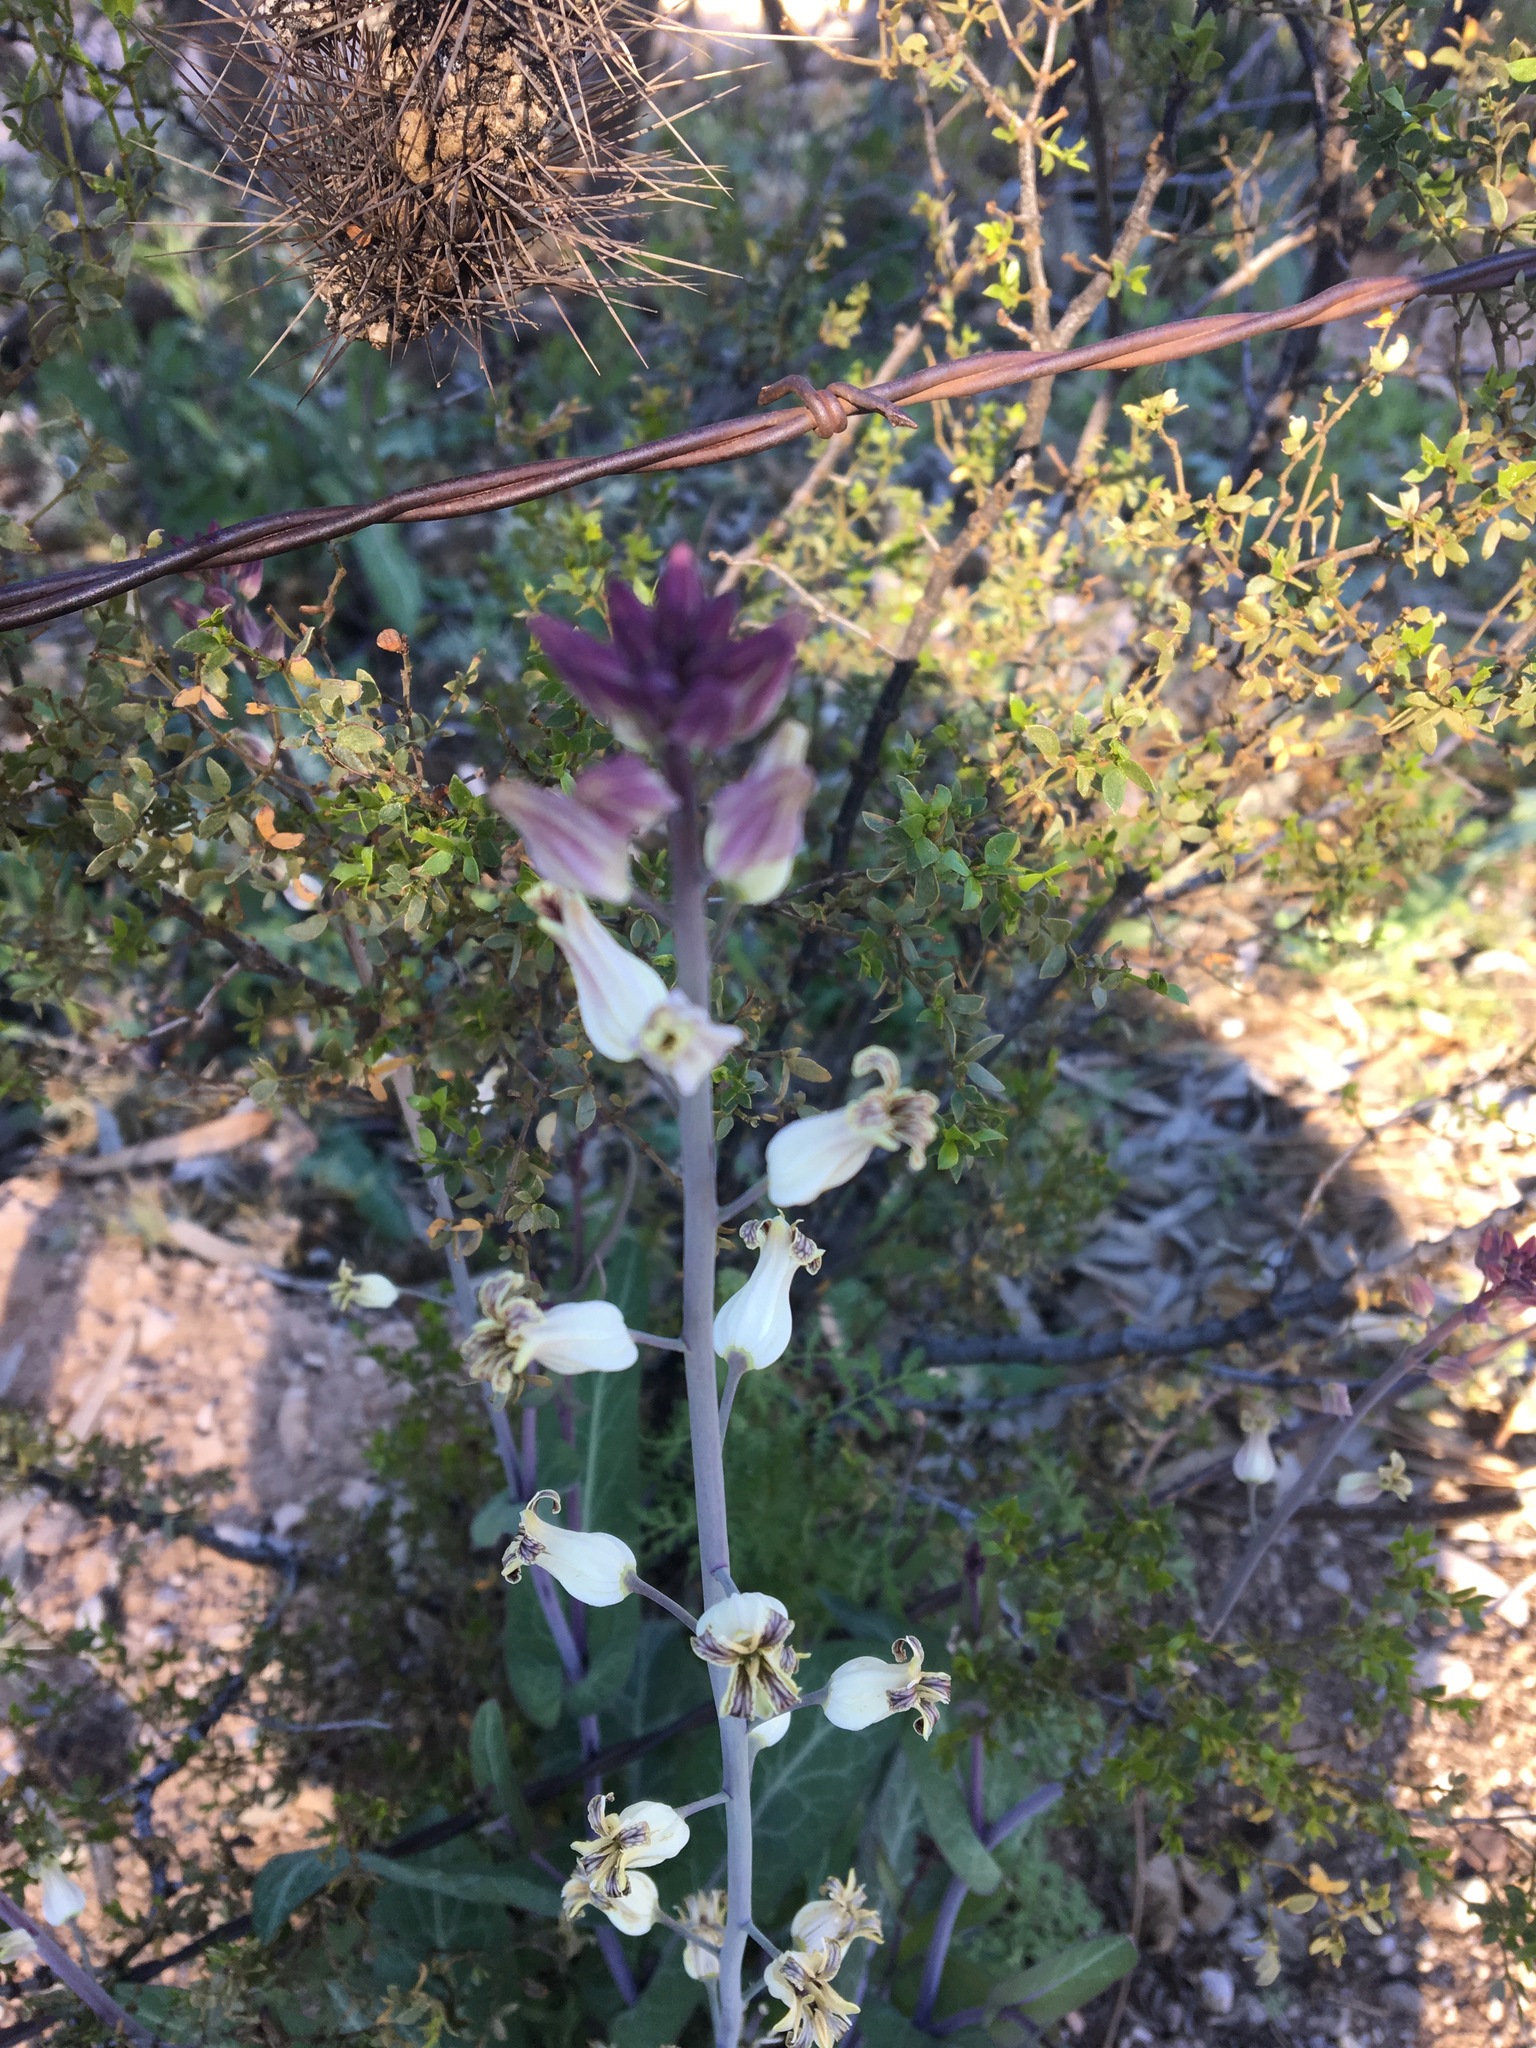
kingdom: Plantae
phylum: Tracheophyta
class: Magnoliopsida
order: Brassicales
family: Brassicaceae
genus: Streptanthus
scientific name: Streptanthus carinatus
